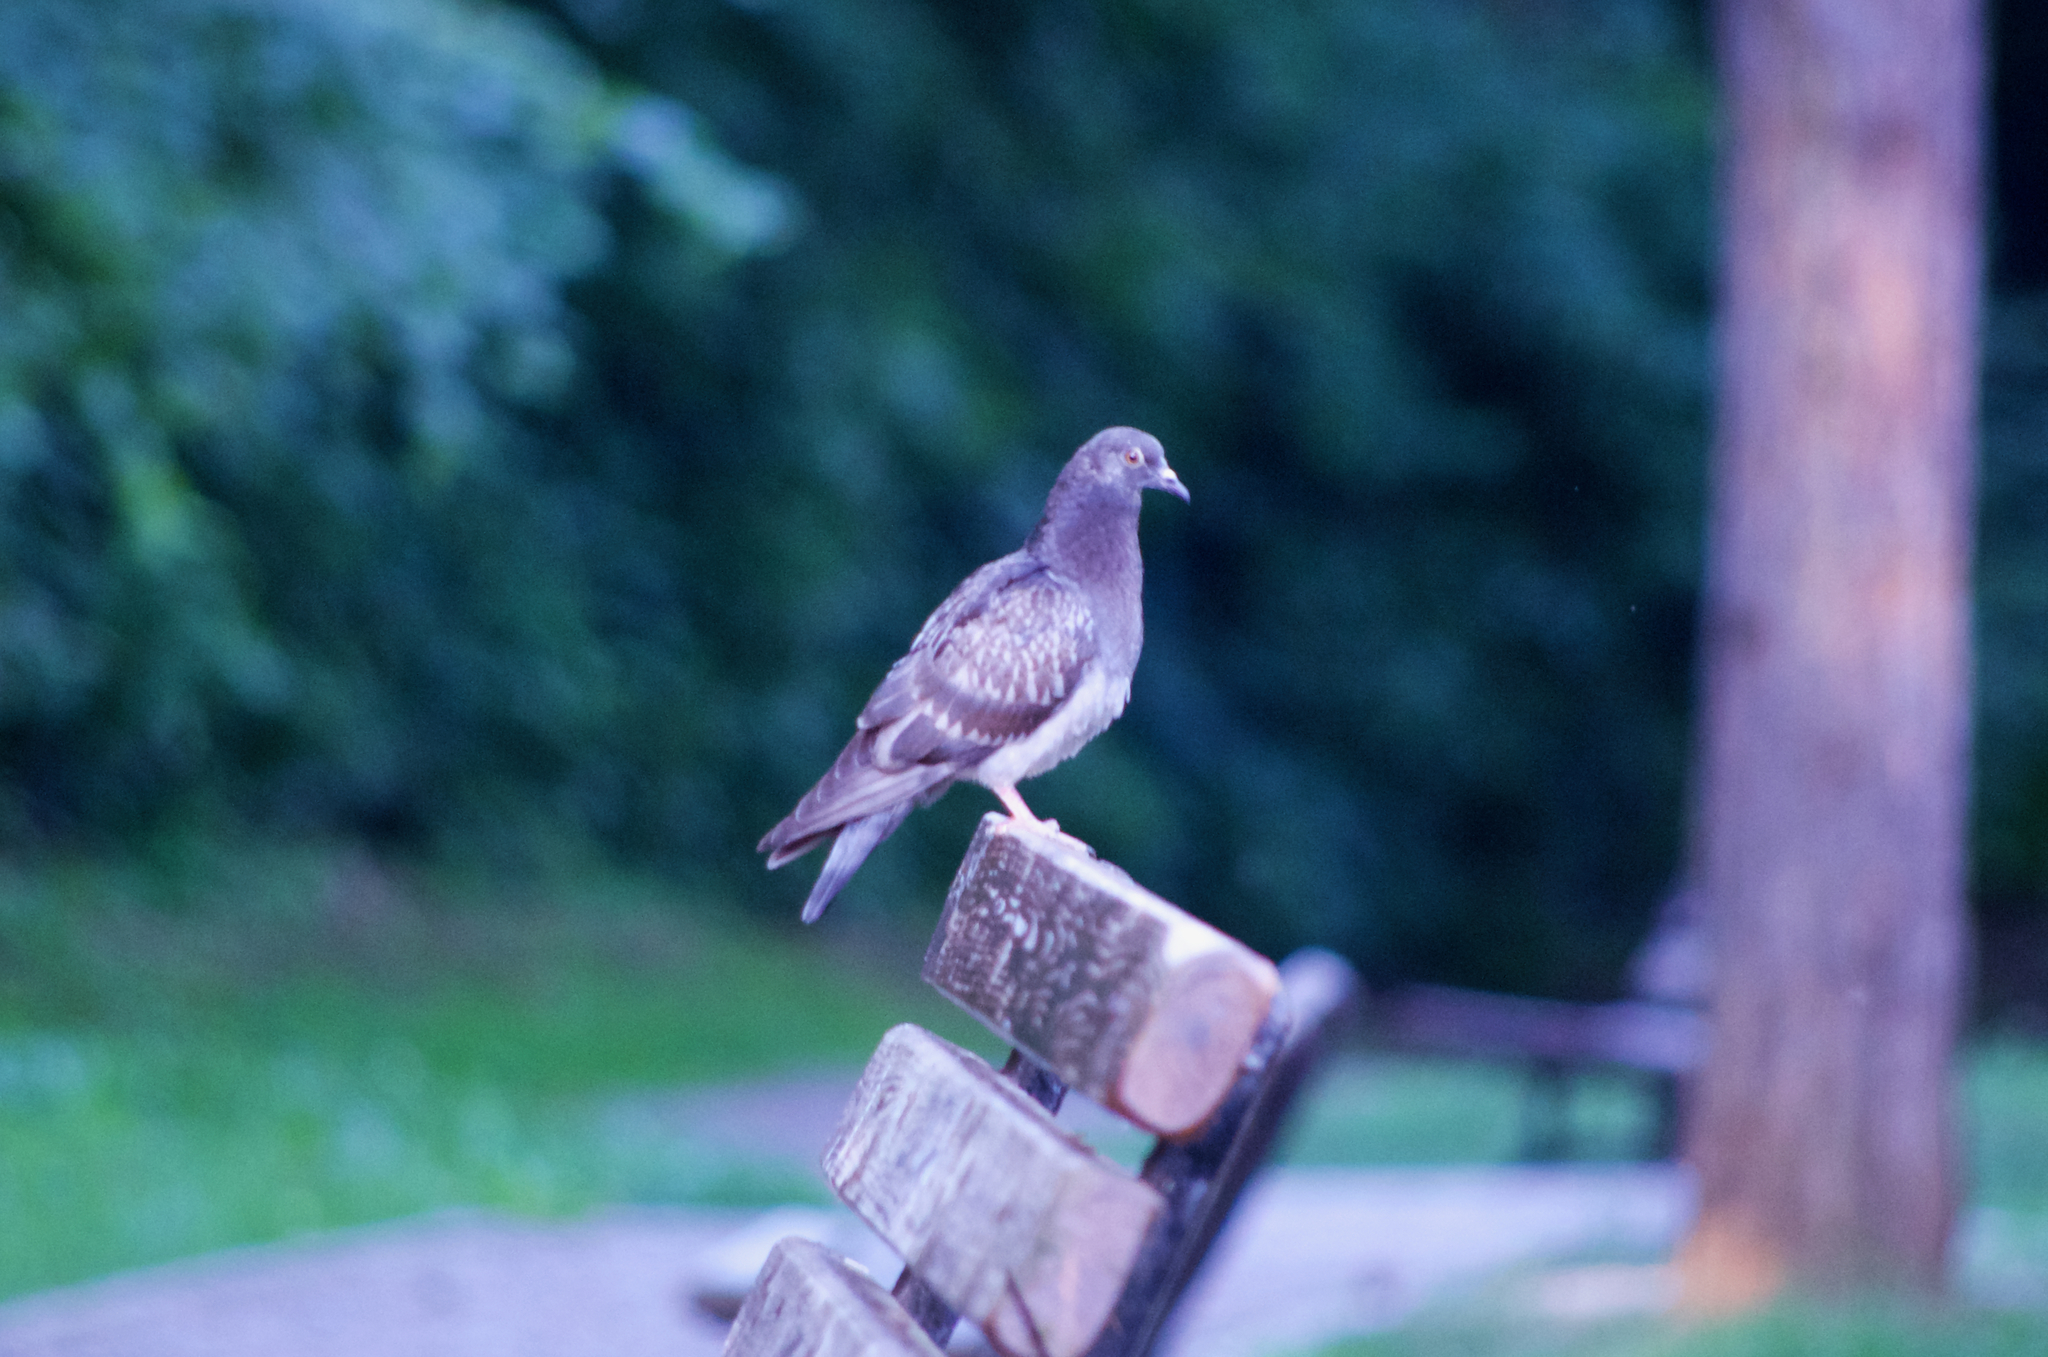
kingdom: Animalia
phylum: Chordata
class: Aves
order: Columbiformes
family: Columbidae
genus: Columba
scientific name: Columba livia
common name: Rock pigeon
